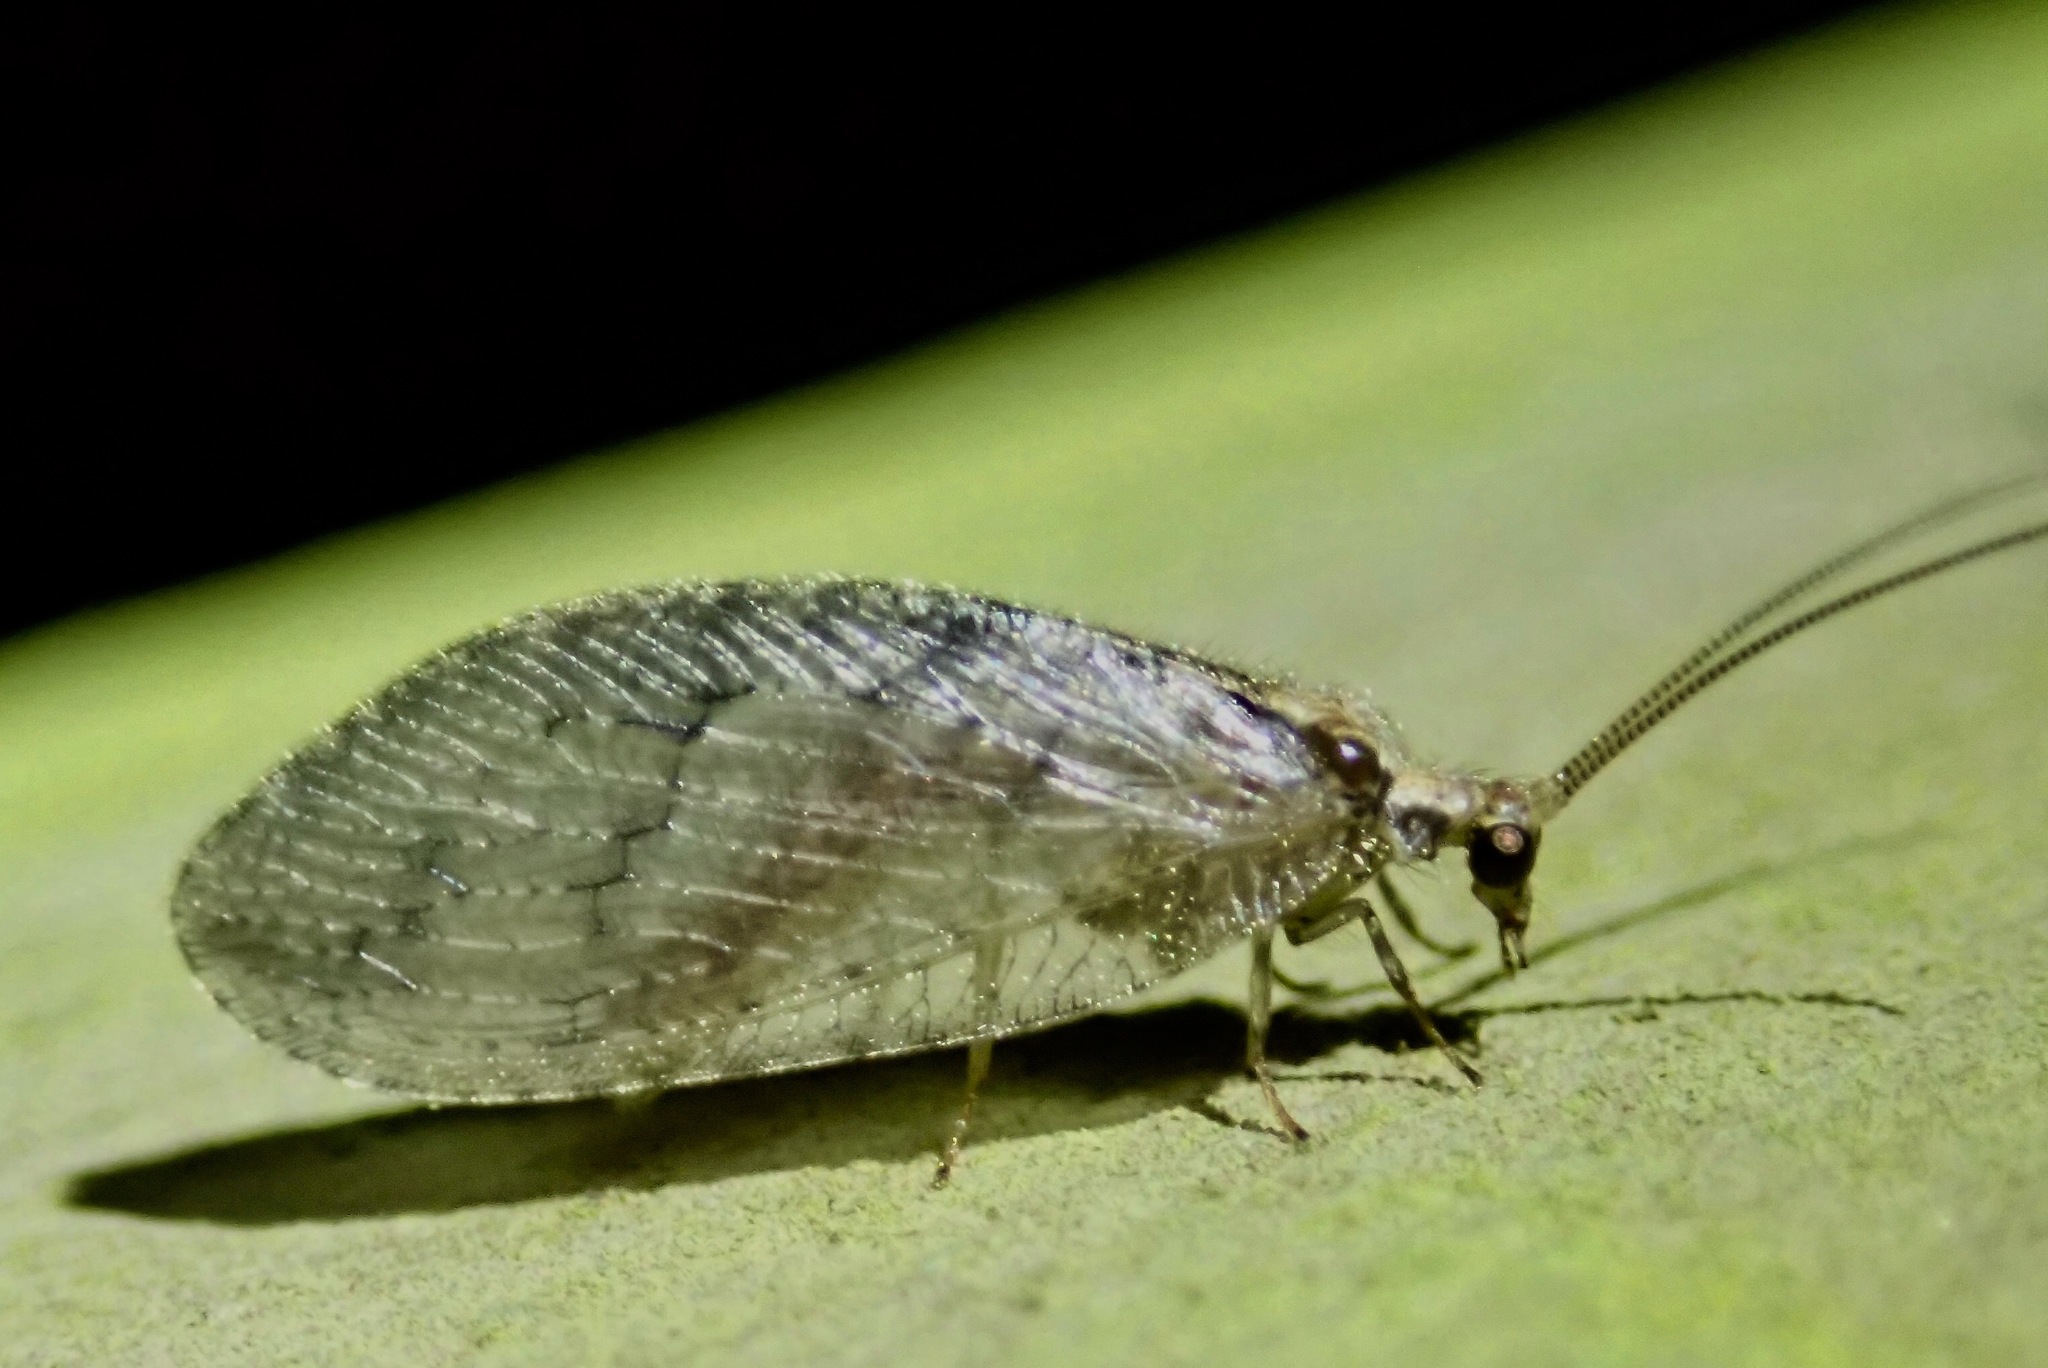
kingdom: Animalia
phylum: Arthropoda
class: Insecta
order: Neuroptera
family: Hemerobiidae
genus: Wesmaelius
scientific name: Wesmaelius subnebulosus
